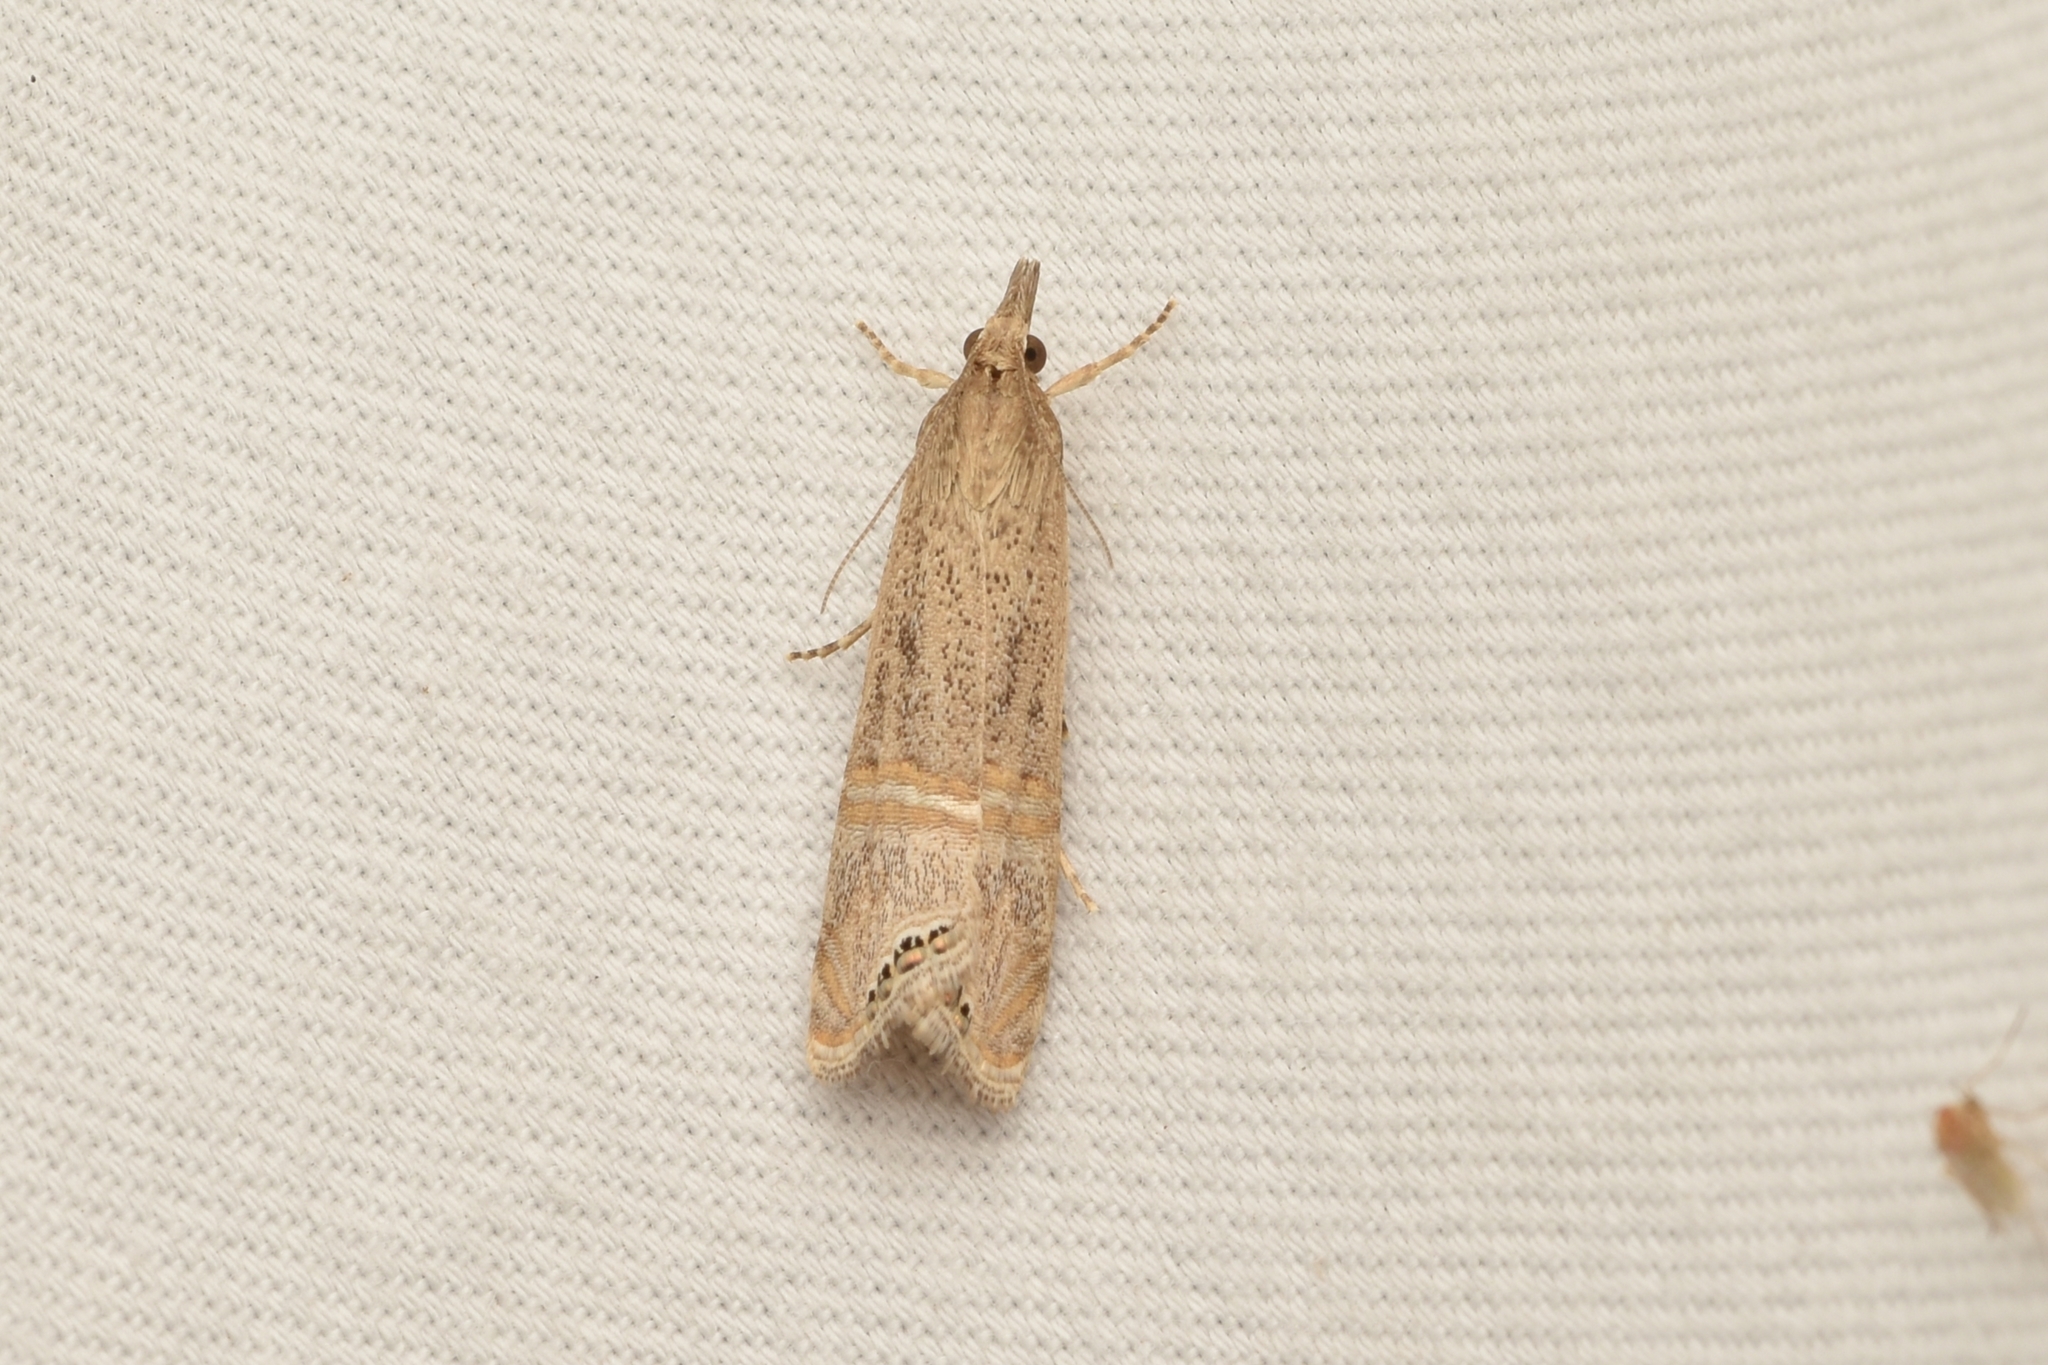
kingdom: Animalia
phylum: Arthropoda
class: Insecta
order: Lepidoptera
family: Crambidae
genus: Euchromius
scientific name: Euchromius ocellea
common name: Necklace veneer moth
